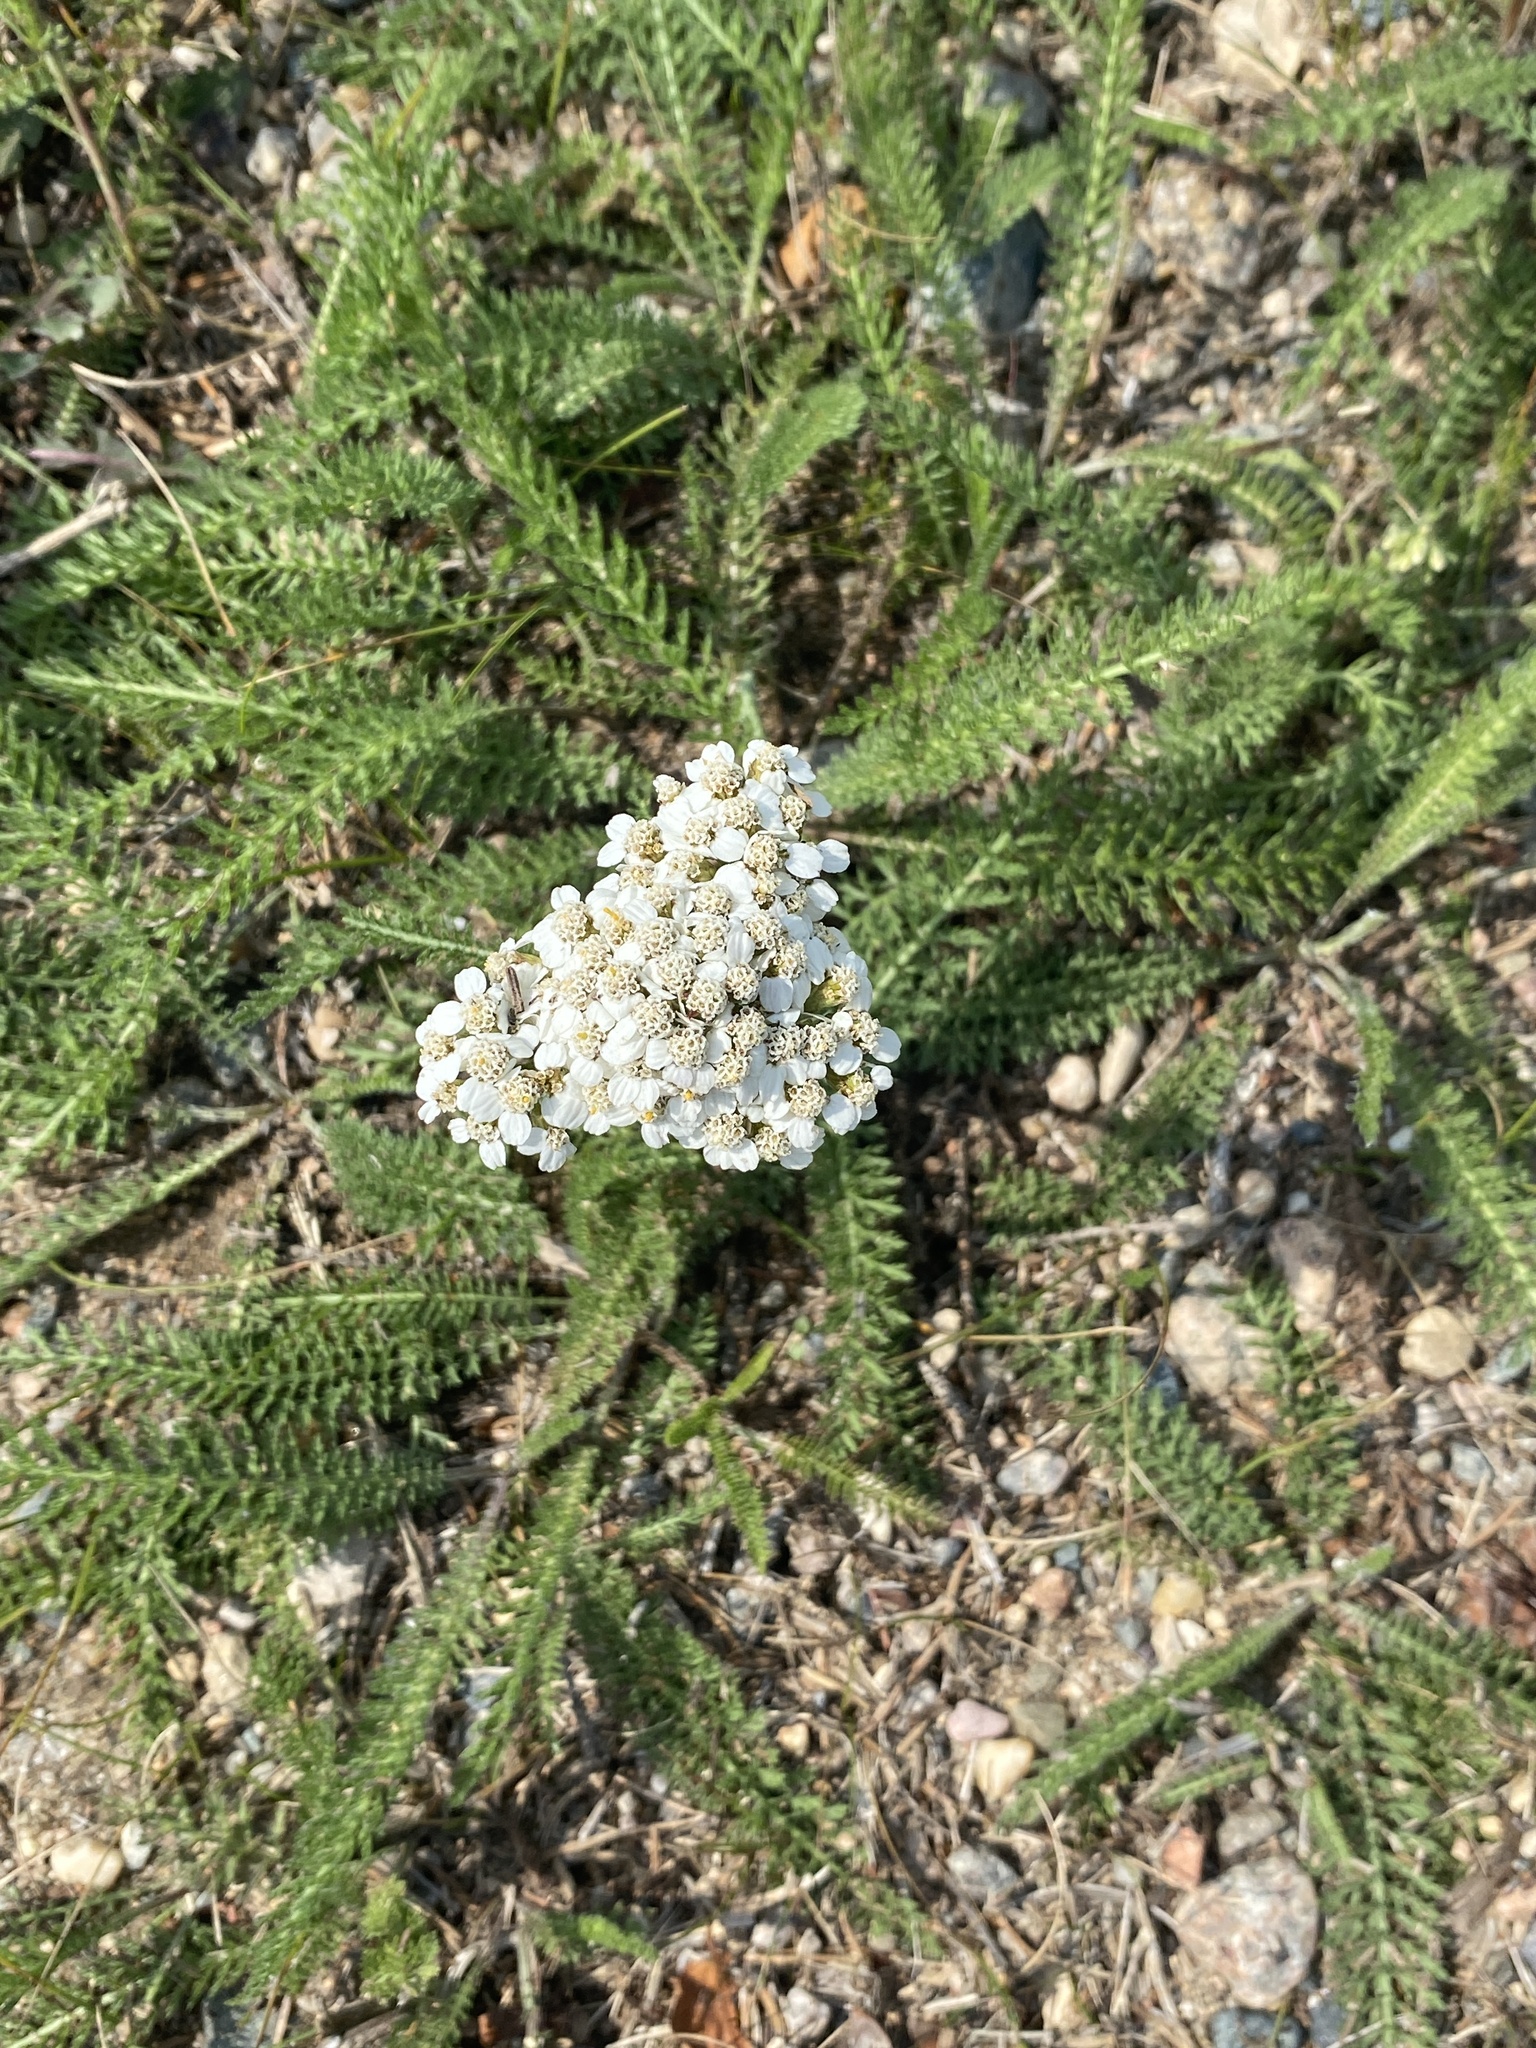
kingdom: Plantae
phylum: Tracheophyta
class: Magnoliopsida
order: Asterales
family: Asteraceae
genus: Achillea
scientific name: Achillea millefolium
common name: Yarrow
